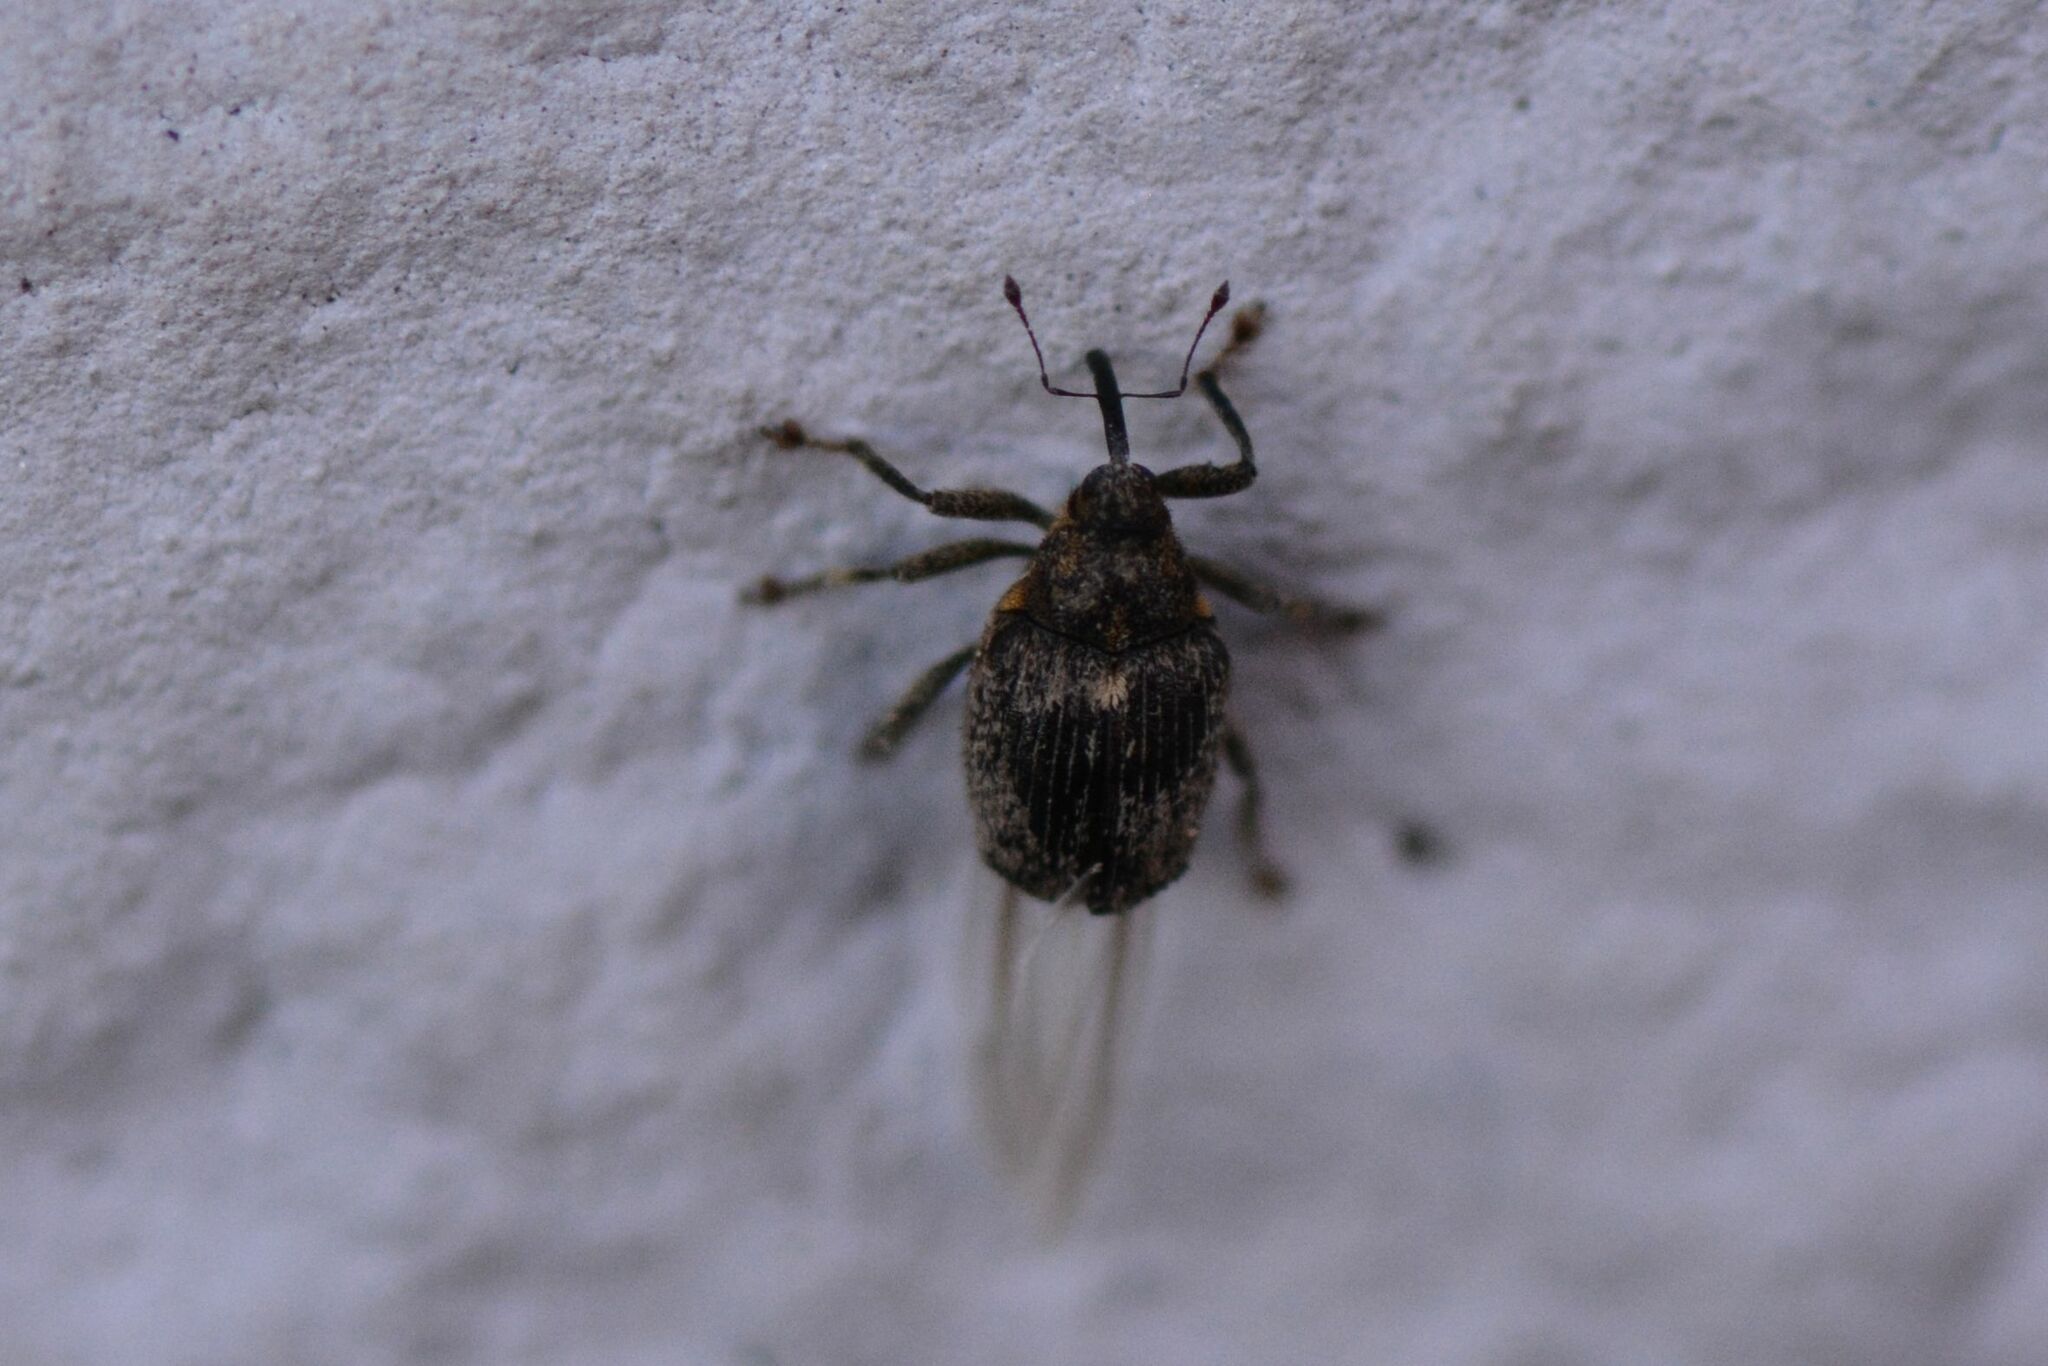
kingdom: Animalia
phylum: Arthropoda
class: Insecta
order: Coleoptera
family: Curculionidae
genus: Ceutorhynchus
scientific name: Ceutorhynchus pallidactylus
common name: Cabbage stem weavil
